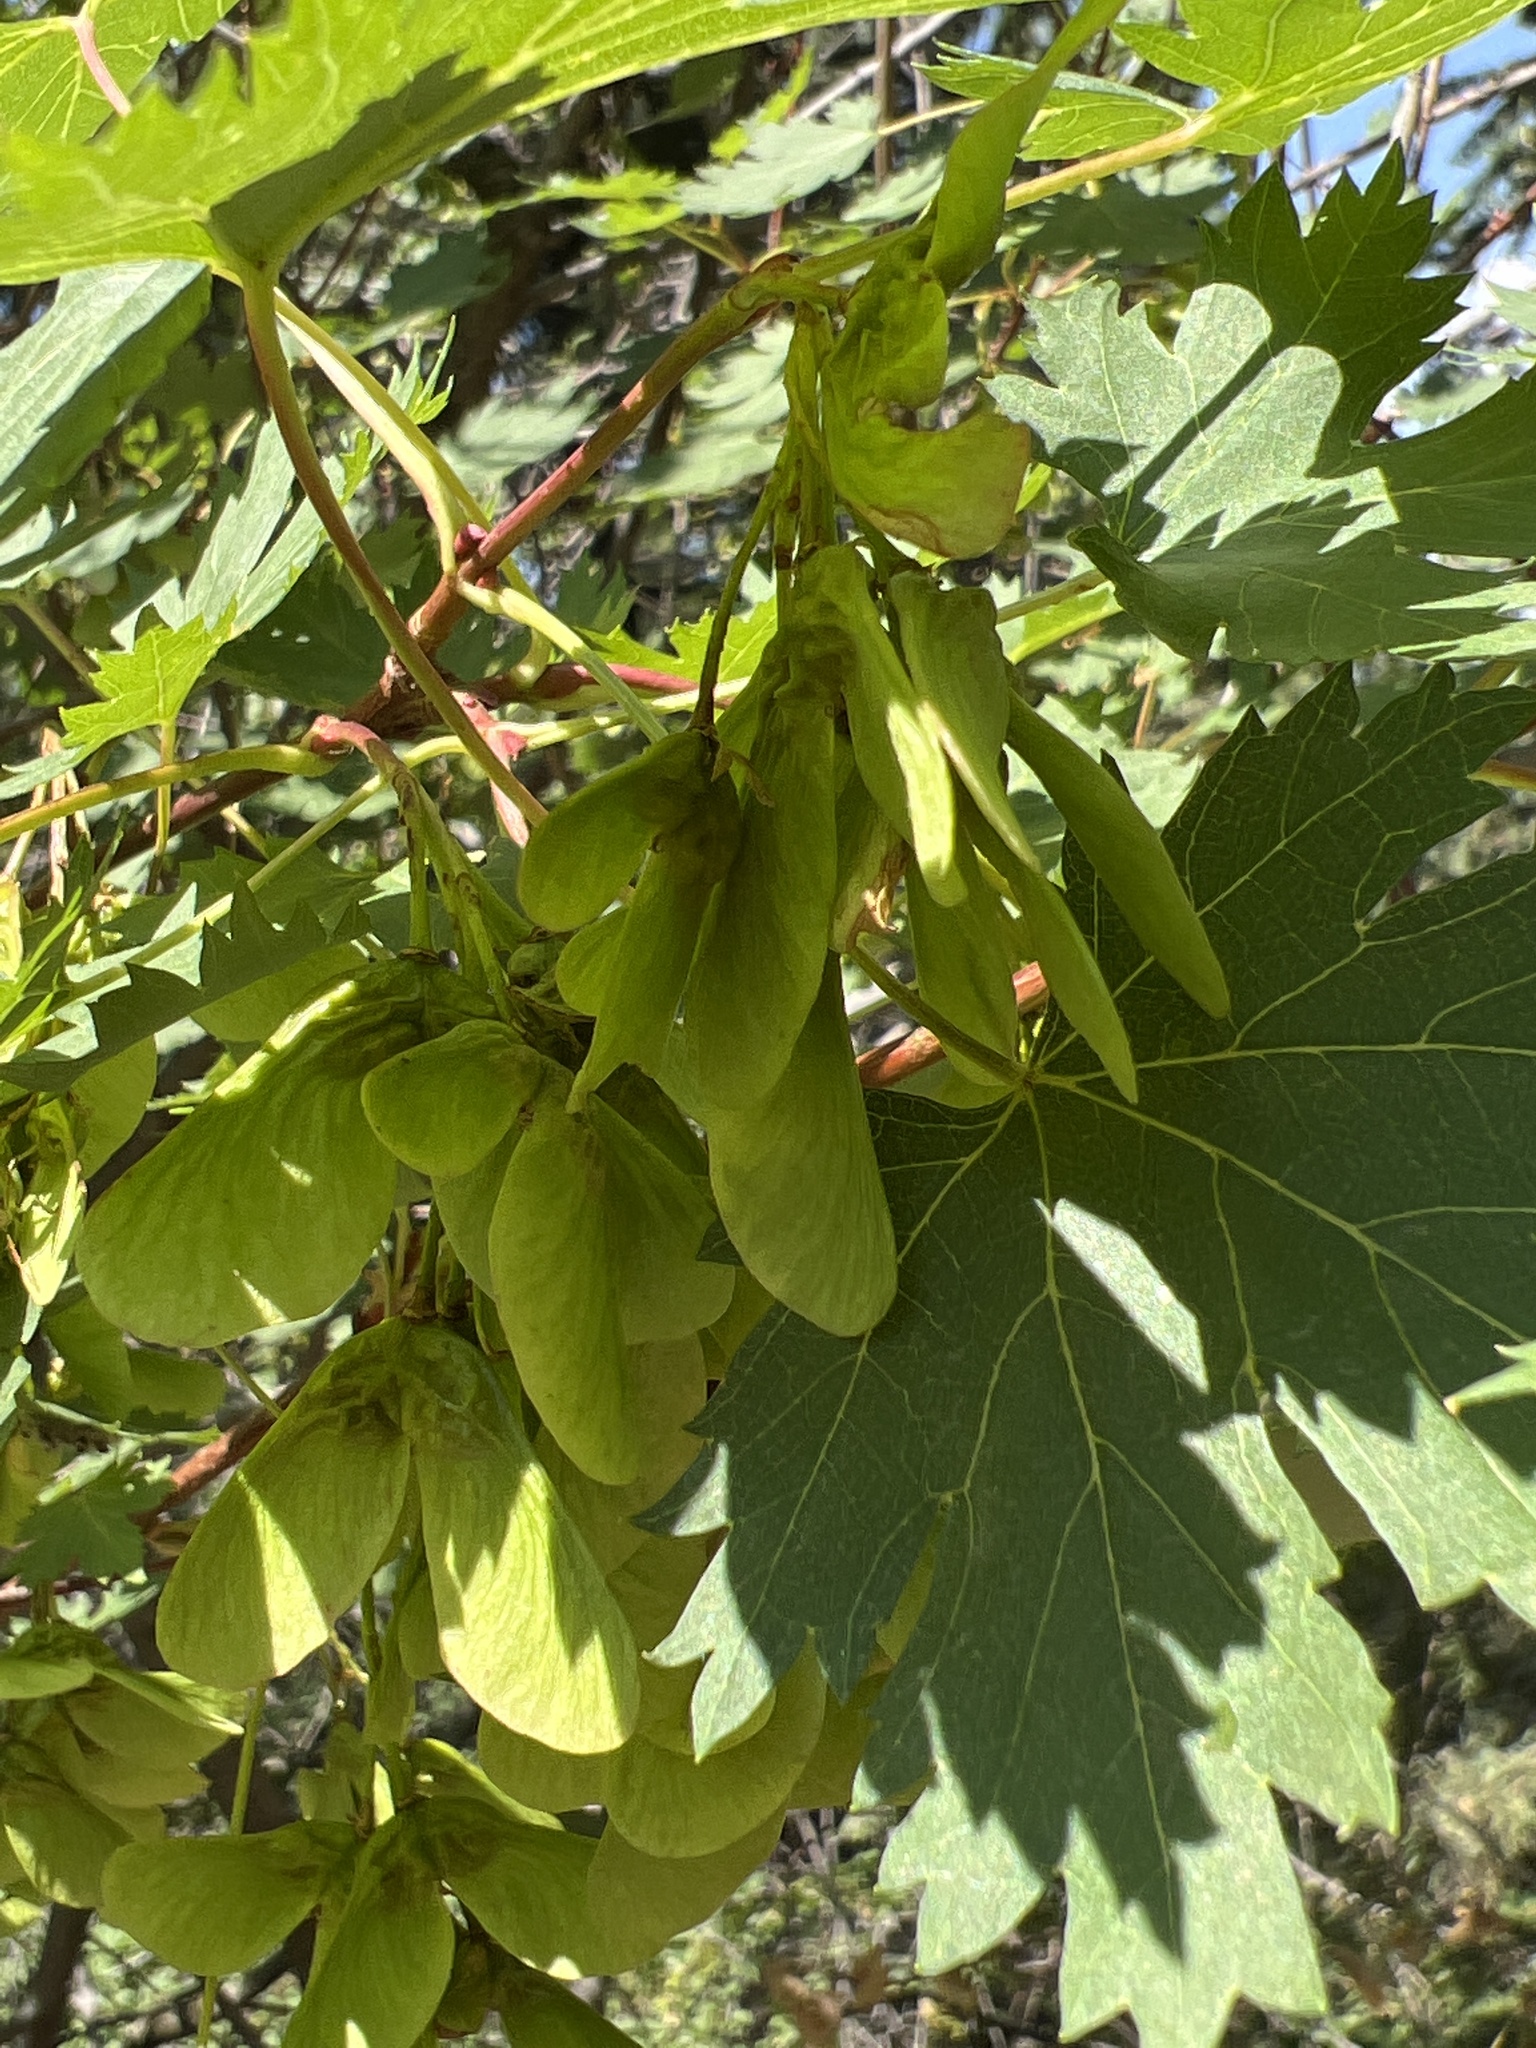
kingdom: Plantae
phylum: Tracheophyta
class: Magnoliopsida
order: Sapindales
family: Sapindaceae
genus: Acer
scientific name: Acer glabrum
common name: Rocky mountain maple
